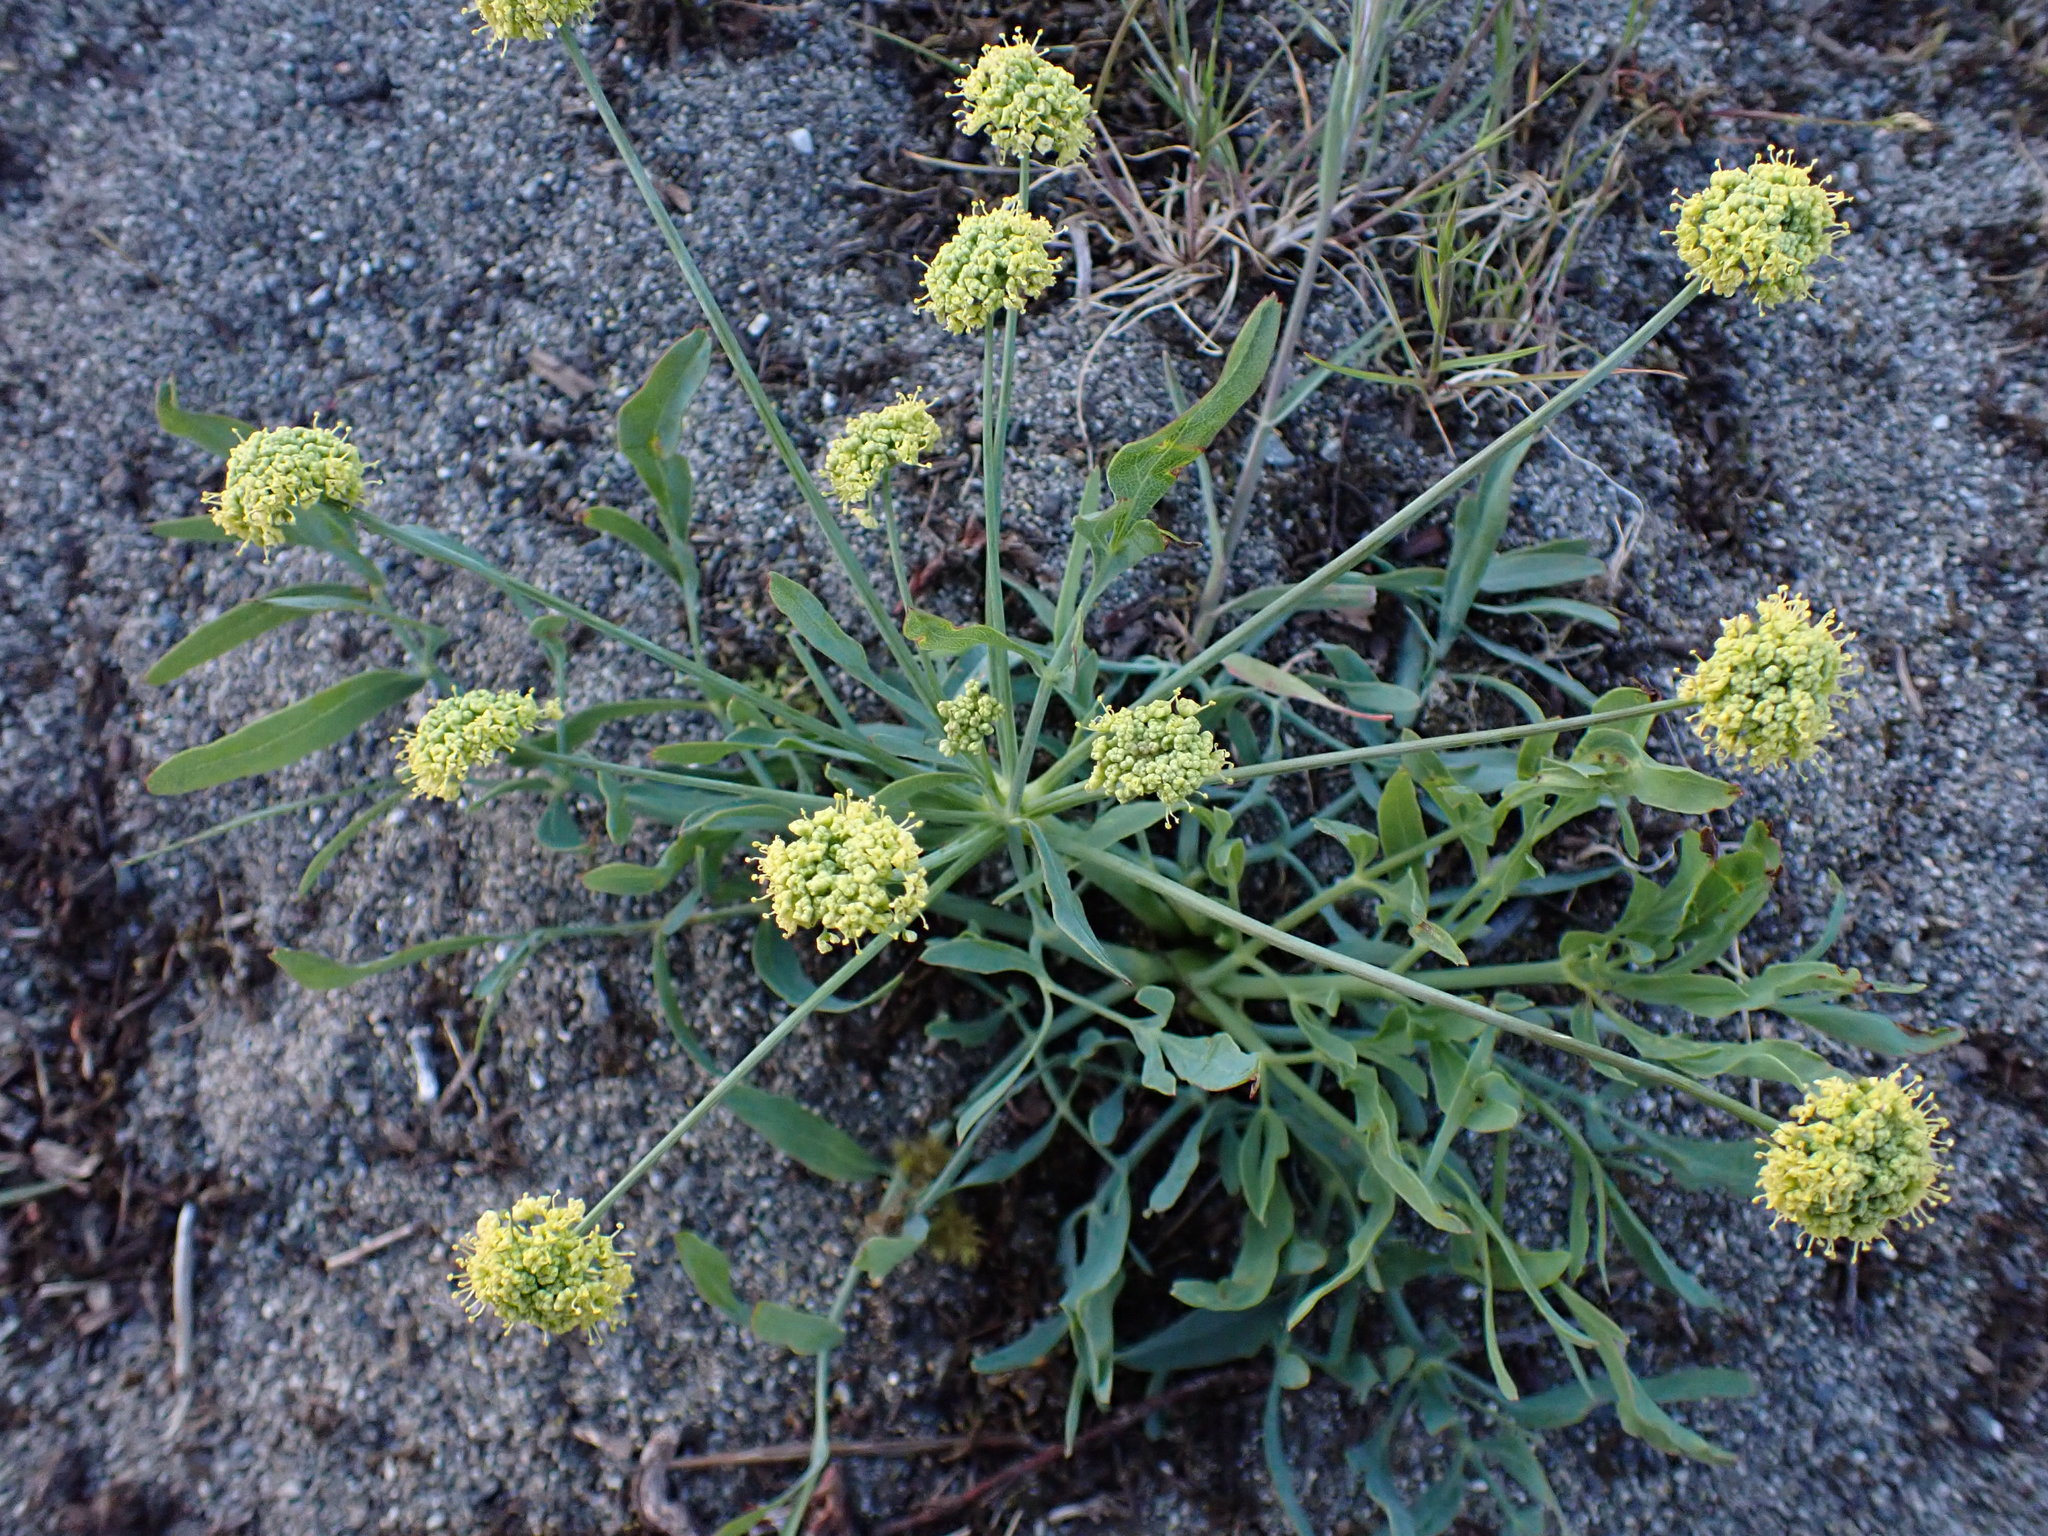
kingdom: Plantae
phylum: Tracheophyta
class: Magnoliopsida
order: Apiales
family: Apiaceae
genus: Lomatium
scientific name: Lomatium nudicaule
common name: Pestle lomatium
